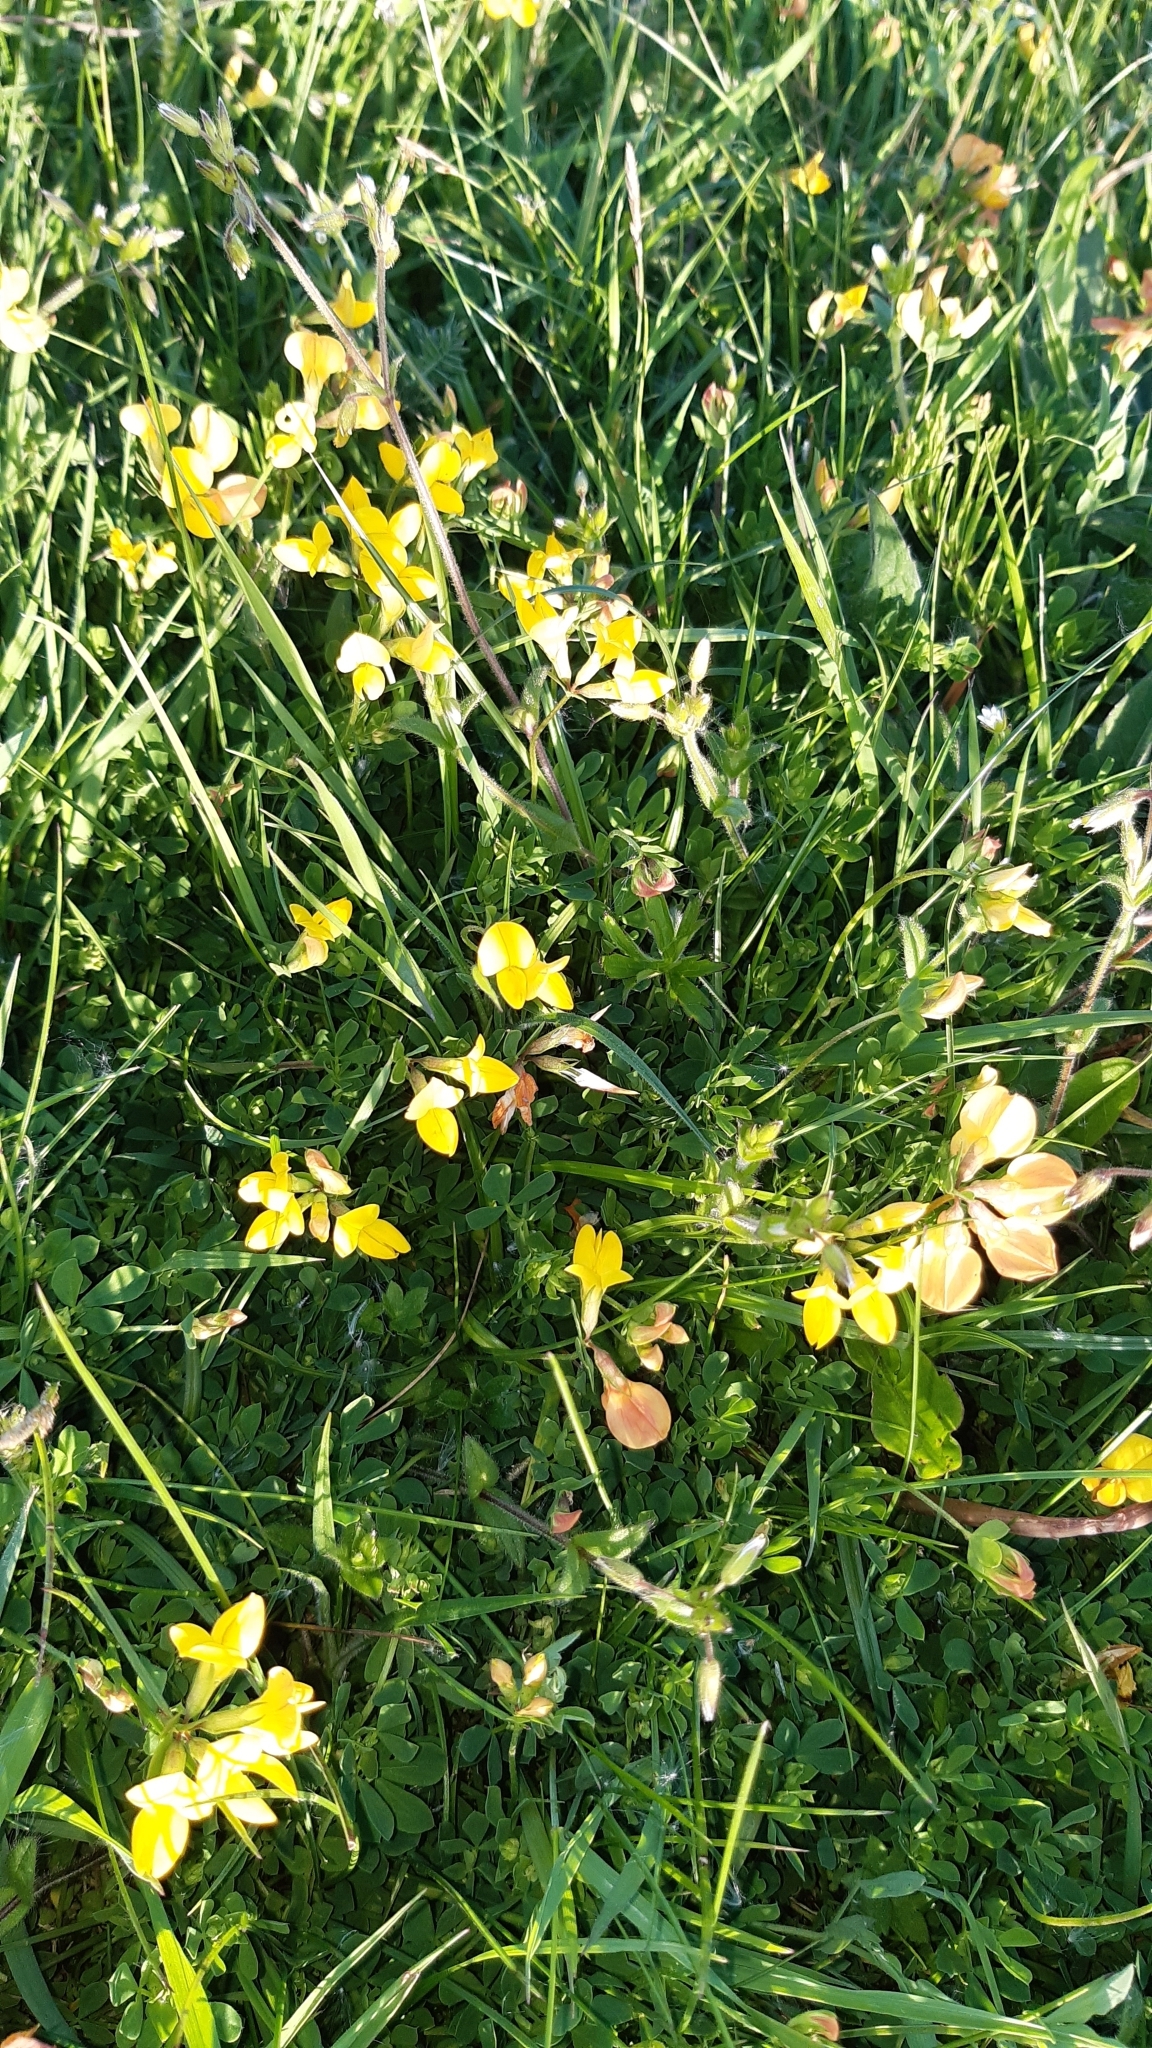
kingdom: Plantae
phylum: Tracheophyta
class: Magnoliopsida
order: Fabales
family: Fabaceae
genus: Lotus
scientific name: Lotus corniculatus
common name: Common bird's-foot-trefoil
